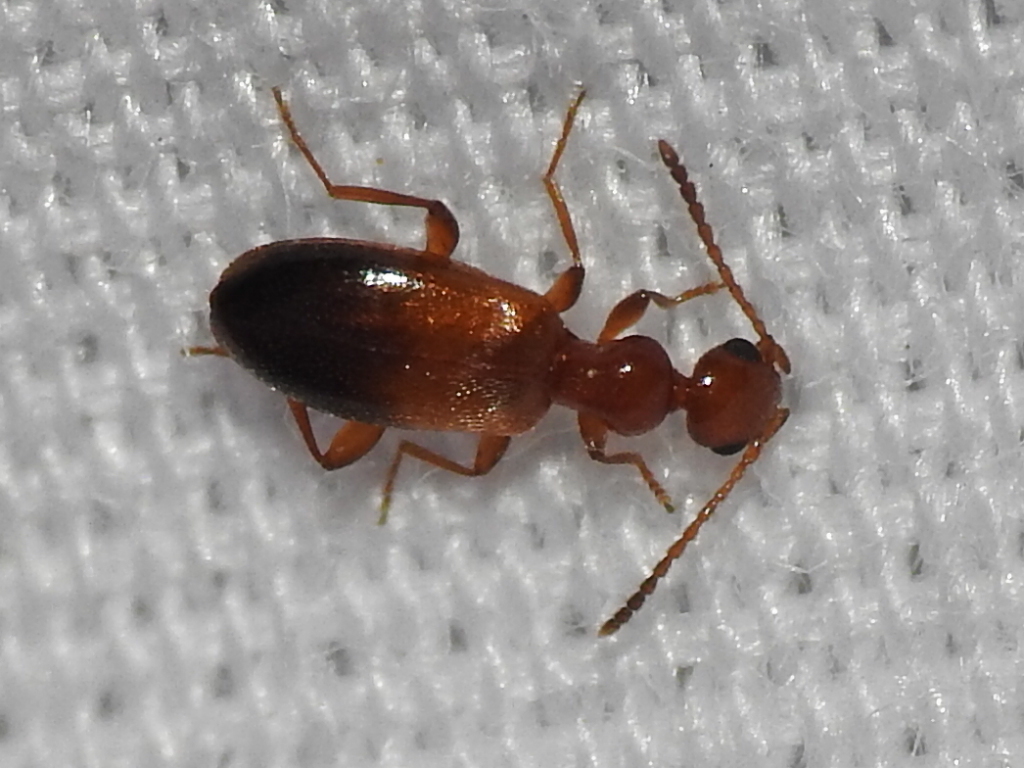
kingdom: Animalia
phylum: Arthropoda
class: Insecta
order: Coleoptera
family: Anthicidae
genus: Ischyropalpus
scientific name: Ischyropalpus subtilissimus
